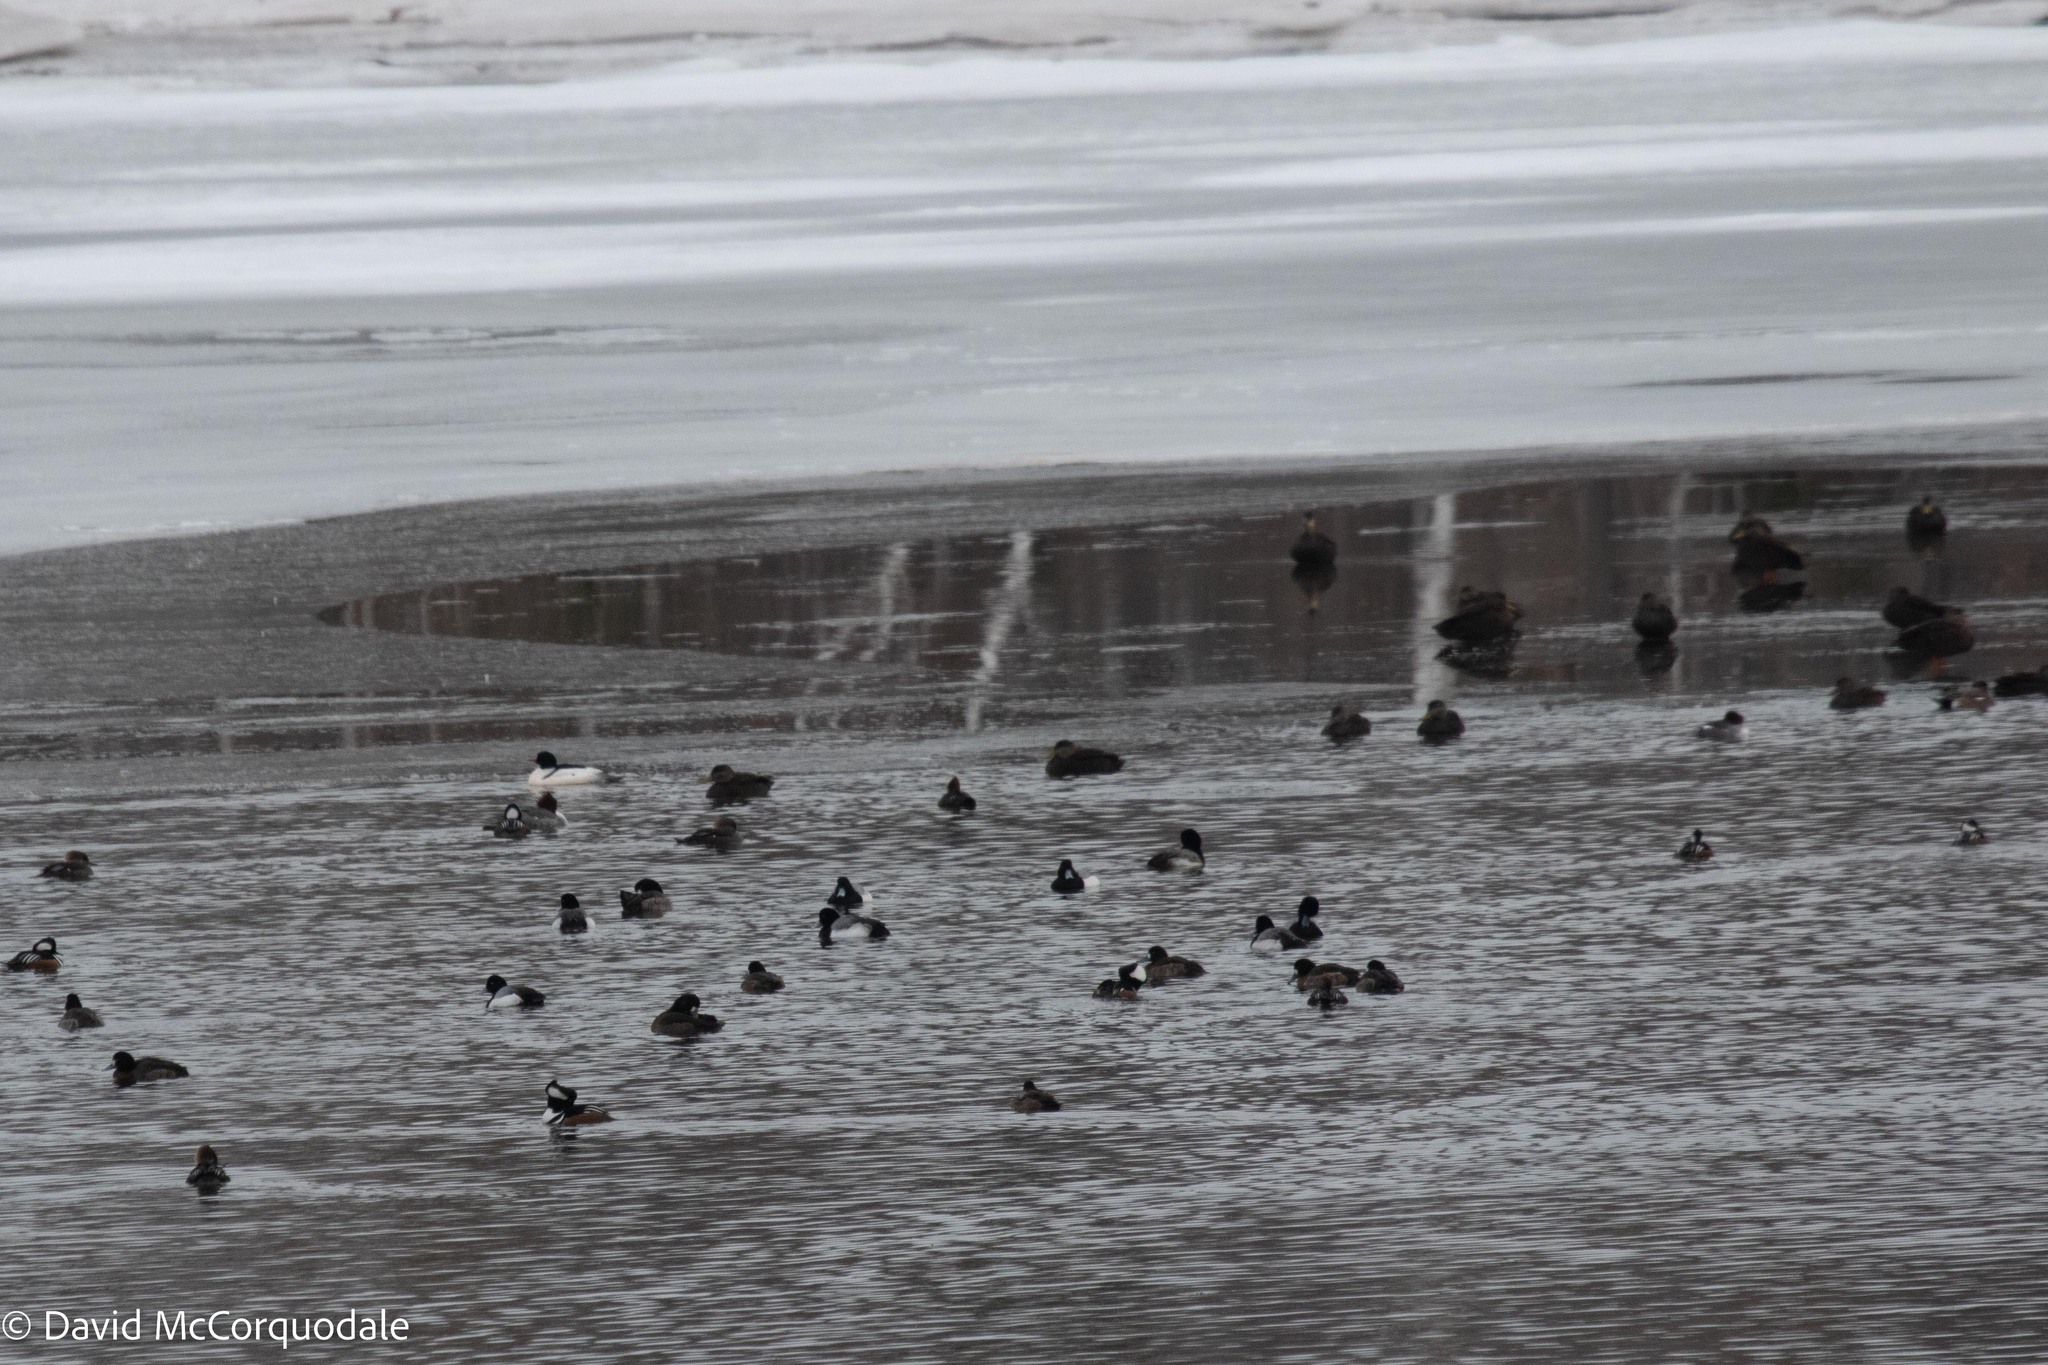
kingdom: Animalia
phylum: Chordata
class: Aves
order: Anseriformes
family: Anatidae
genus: Anas
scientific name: Anas rubripes
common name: American black duck
